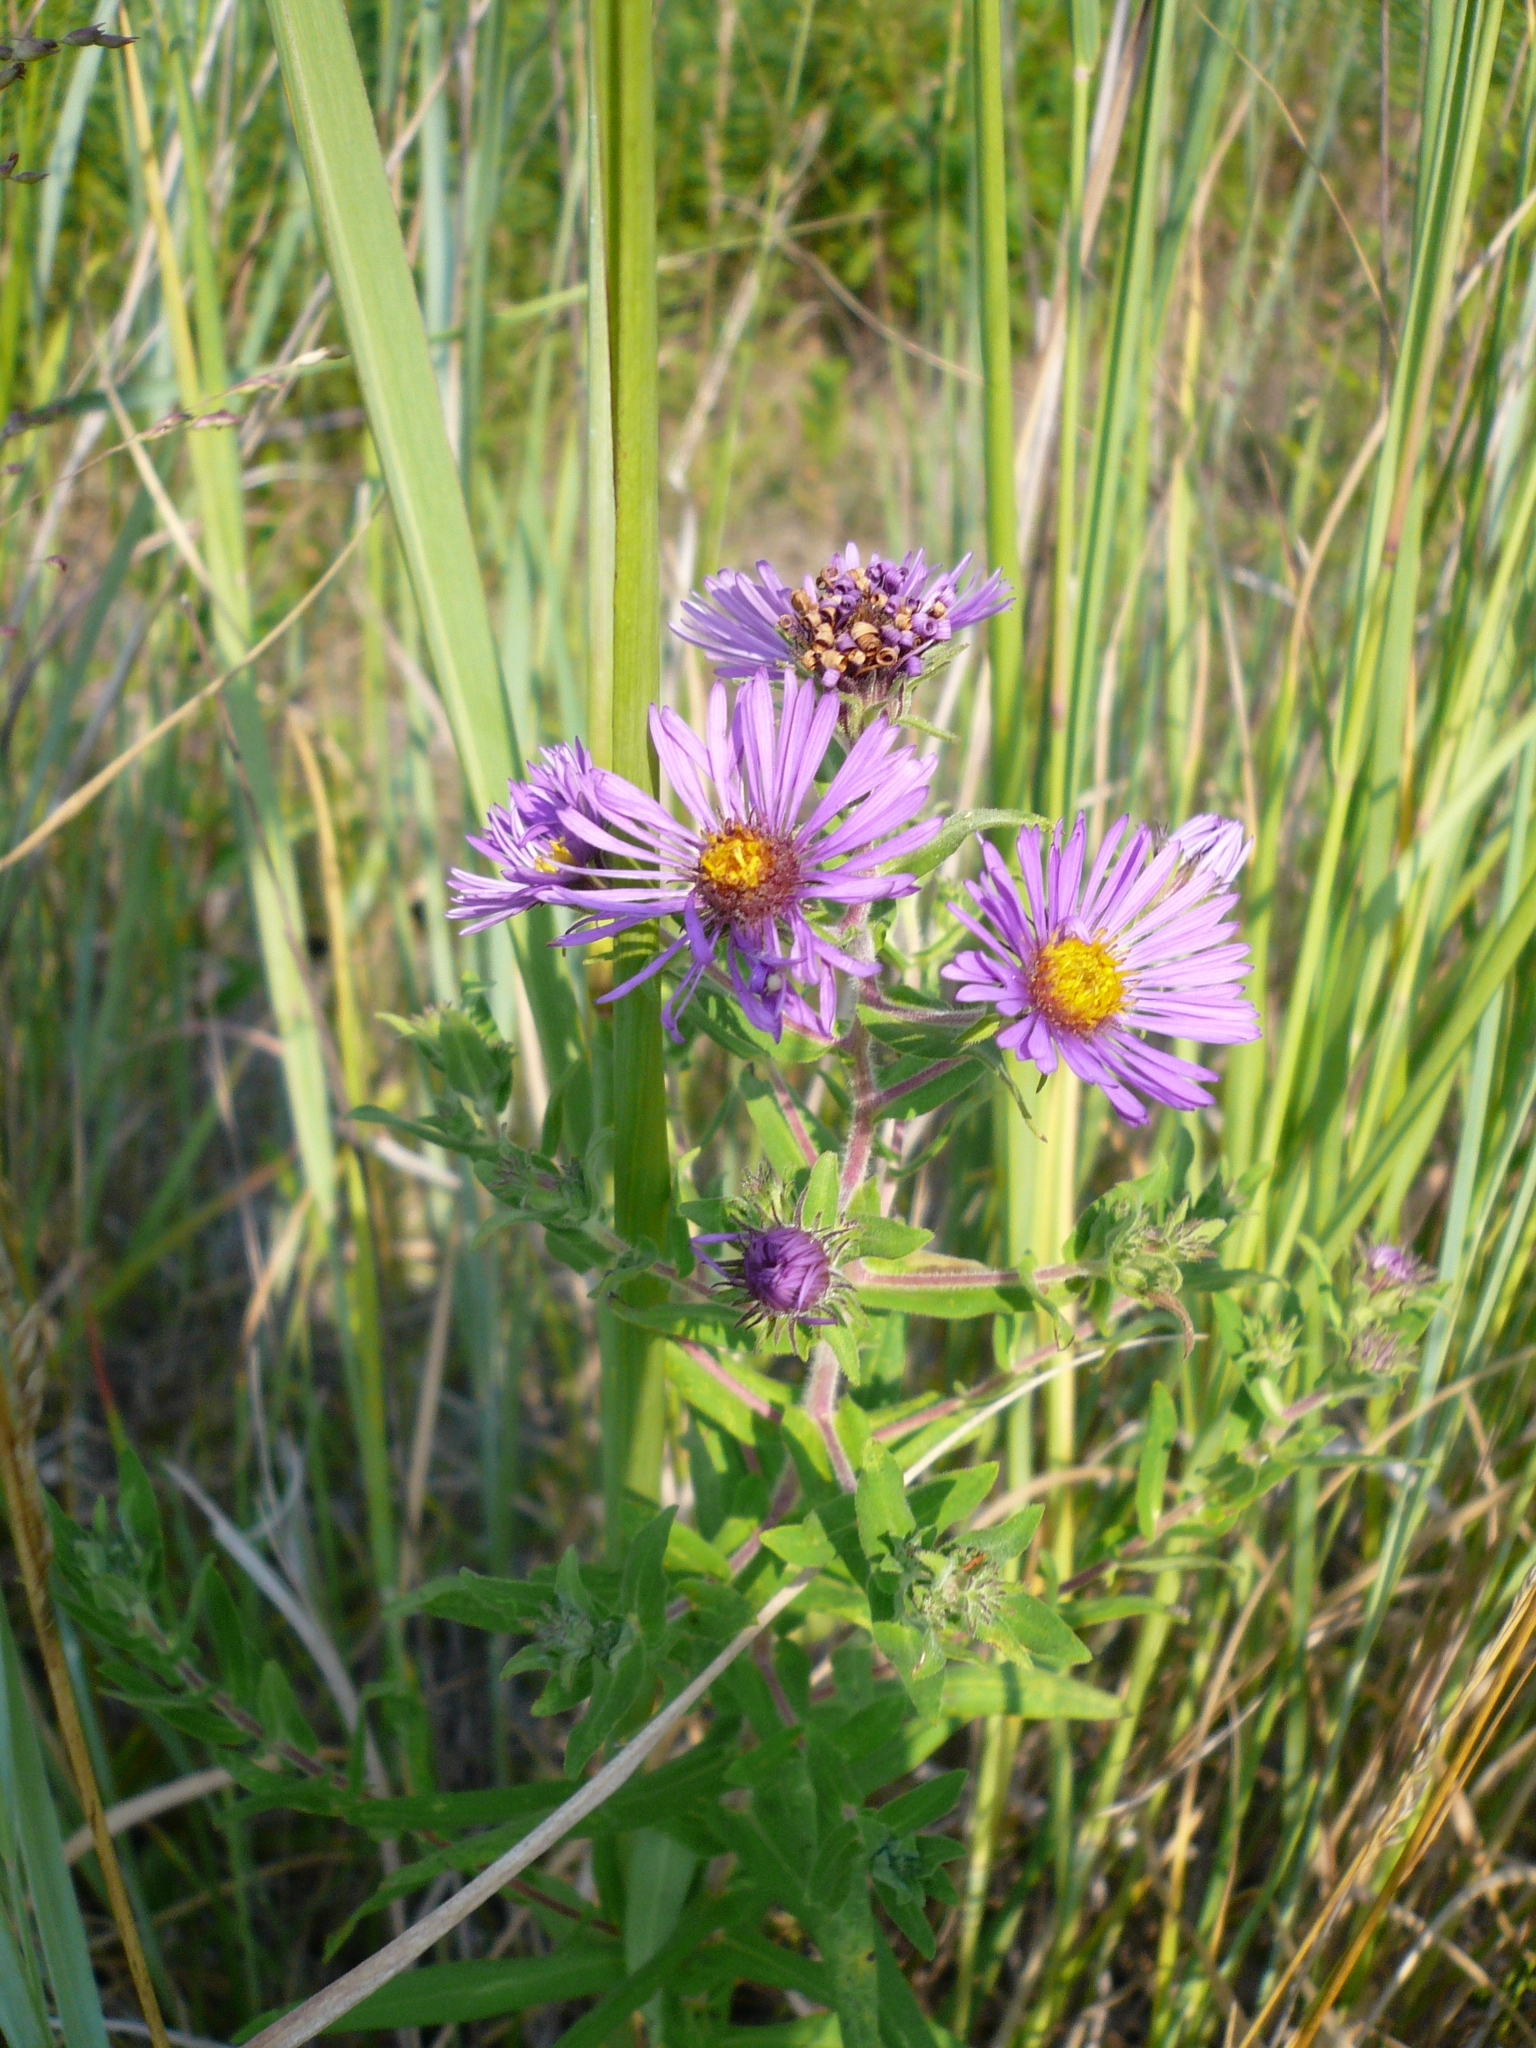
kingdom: Plantae
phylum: Tracheophyta
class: Magnoliopsida
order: Asterales
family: Asteraceae
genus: Symphyotrichum
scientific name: Symphyotrichum novae-angliae
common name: Michaelmas daisy
